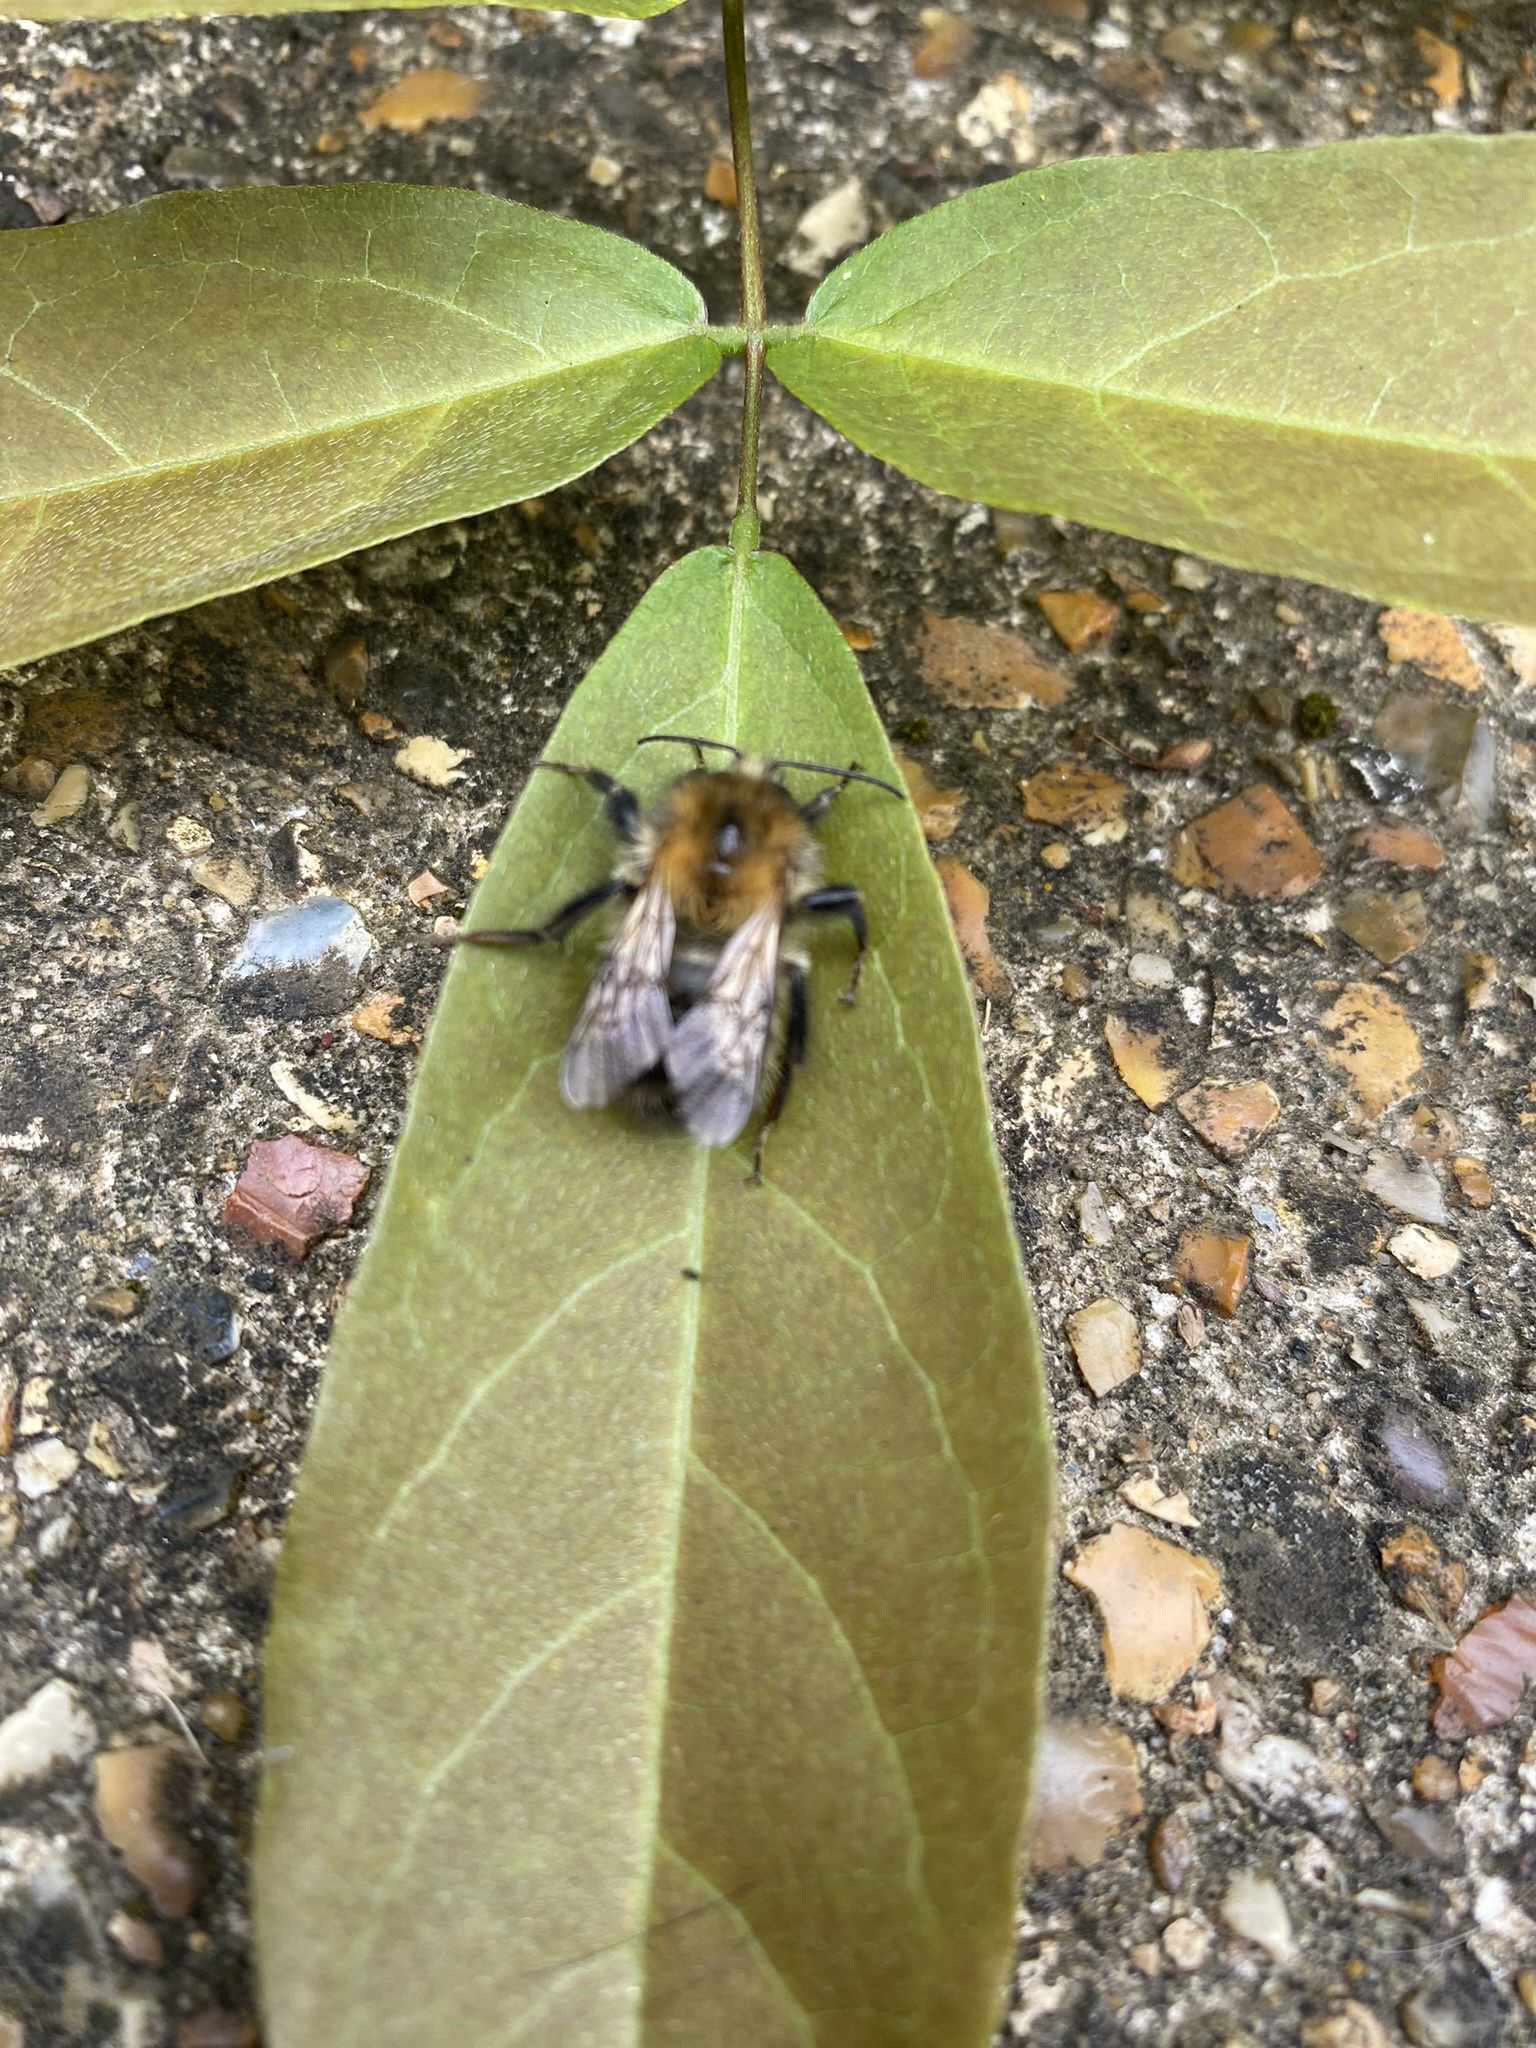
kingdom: Animalia
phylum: Arthropoda
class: Insecta
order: Hymenoptera
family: Apidae
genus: Bombus
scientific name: Bombus pascuorum
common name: Common carder bee
